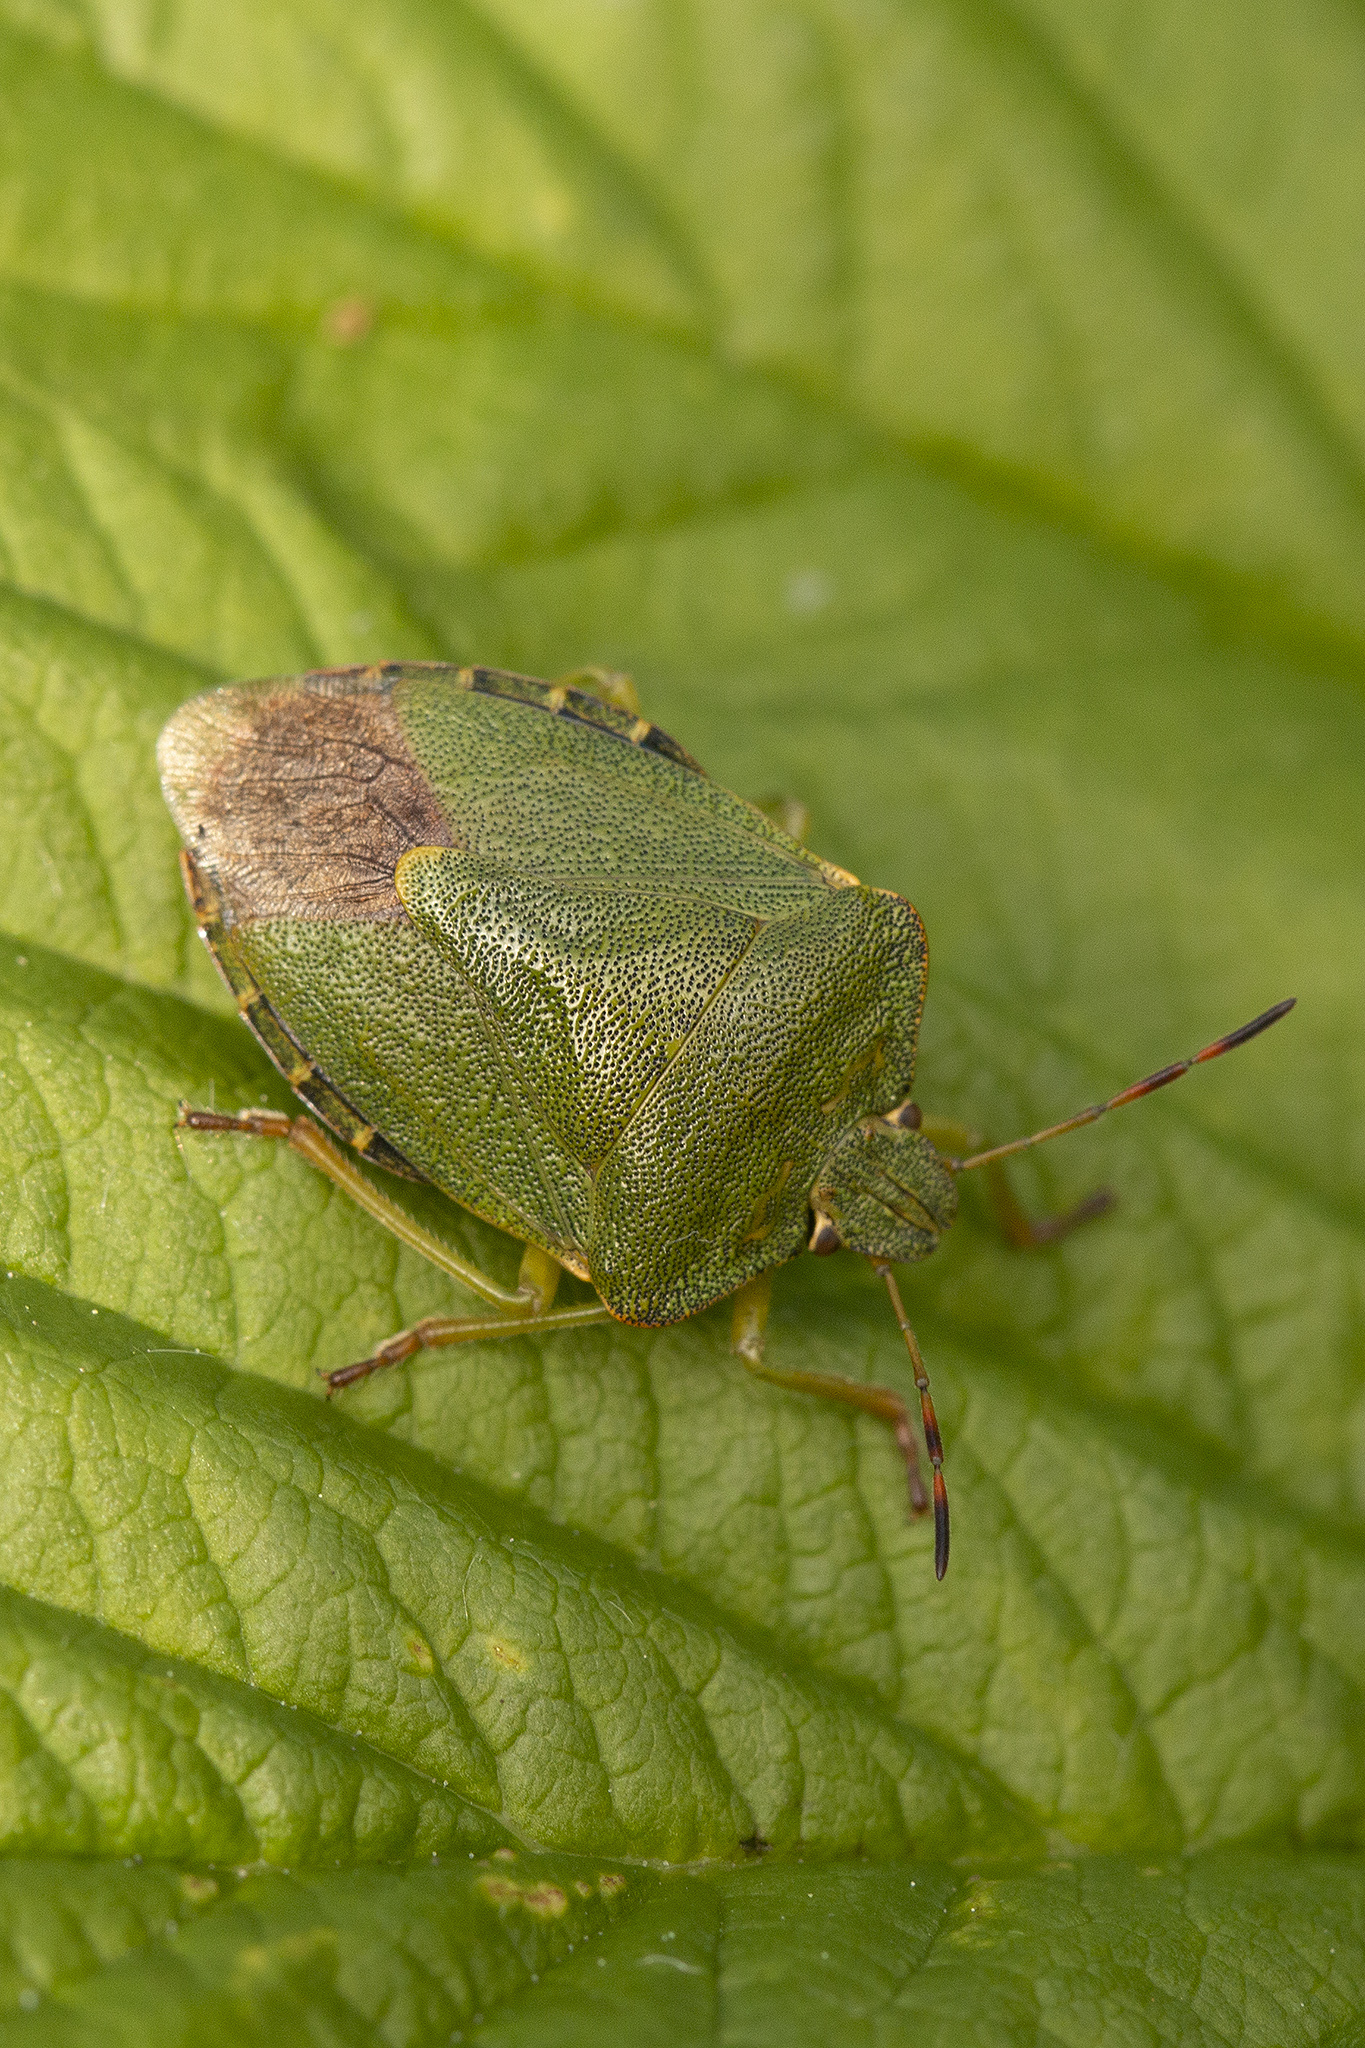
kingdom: Animalia
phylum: Arthropoda
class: Insecta
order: Hemiptera
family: Pentatomidae
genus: Palomena
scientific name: Palomena prasina
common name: Green shieldbug
